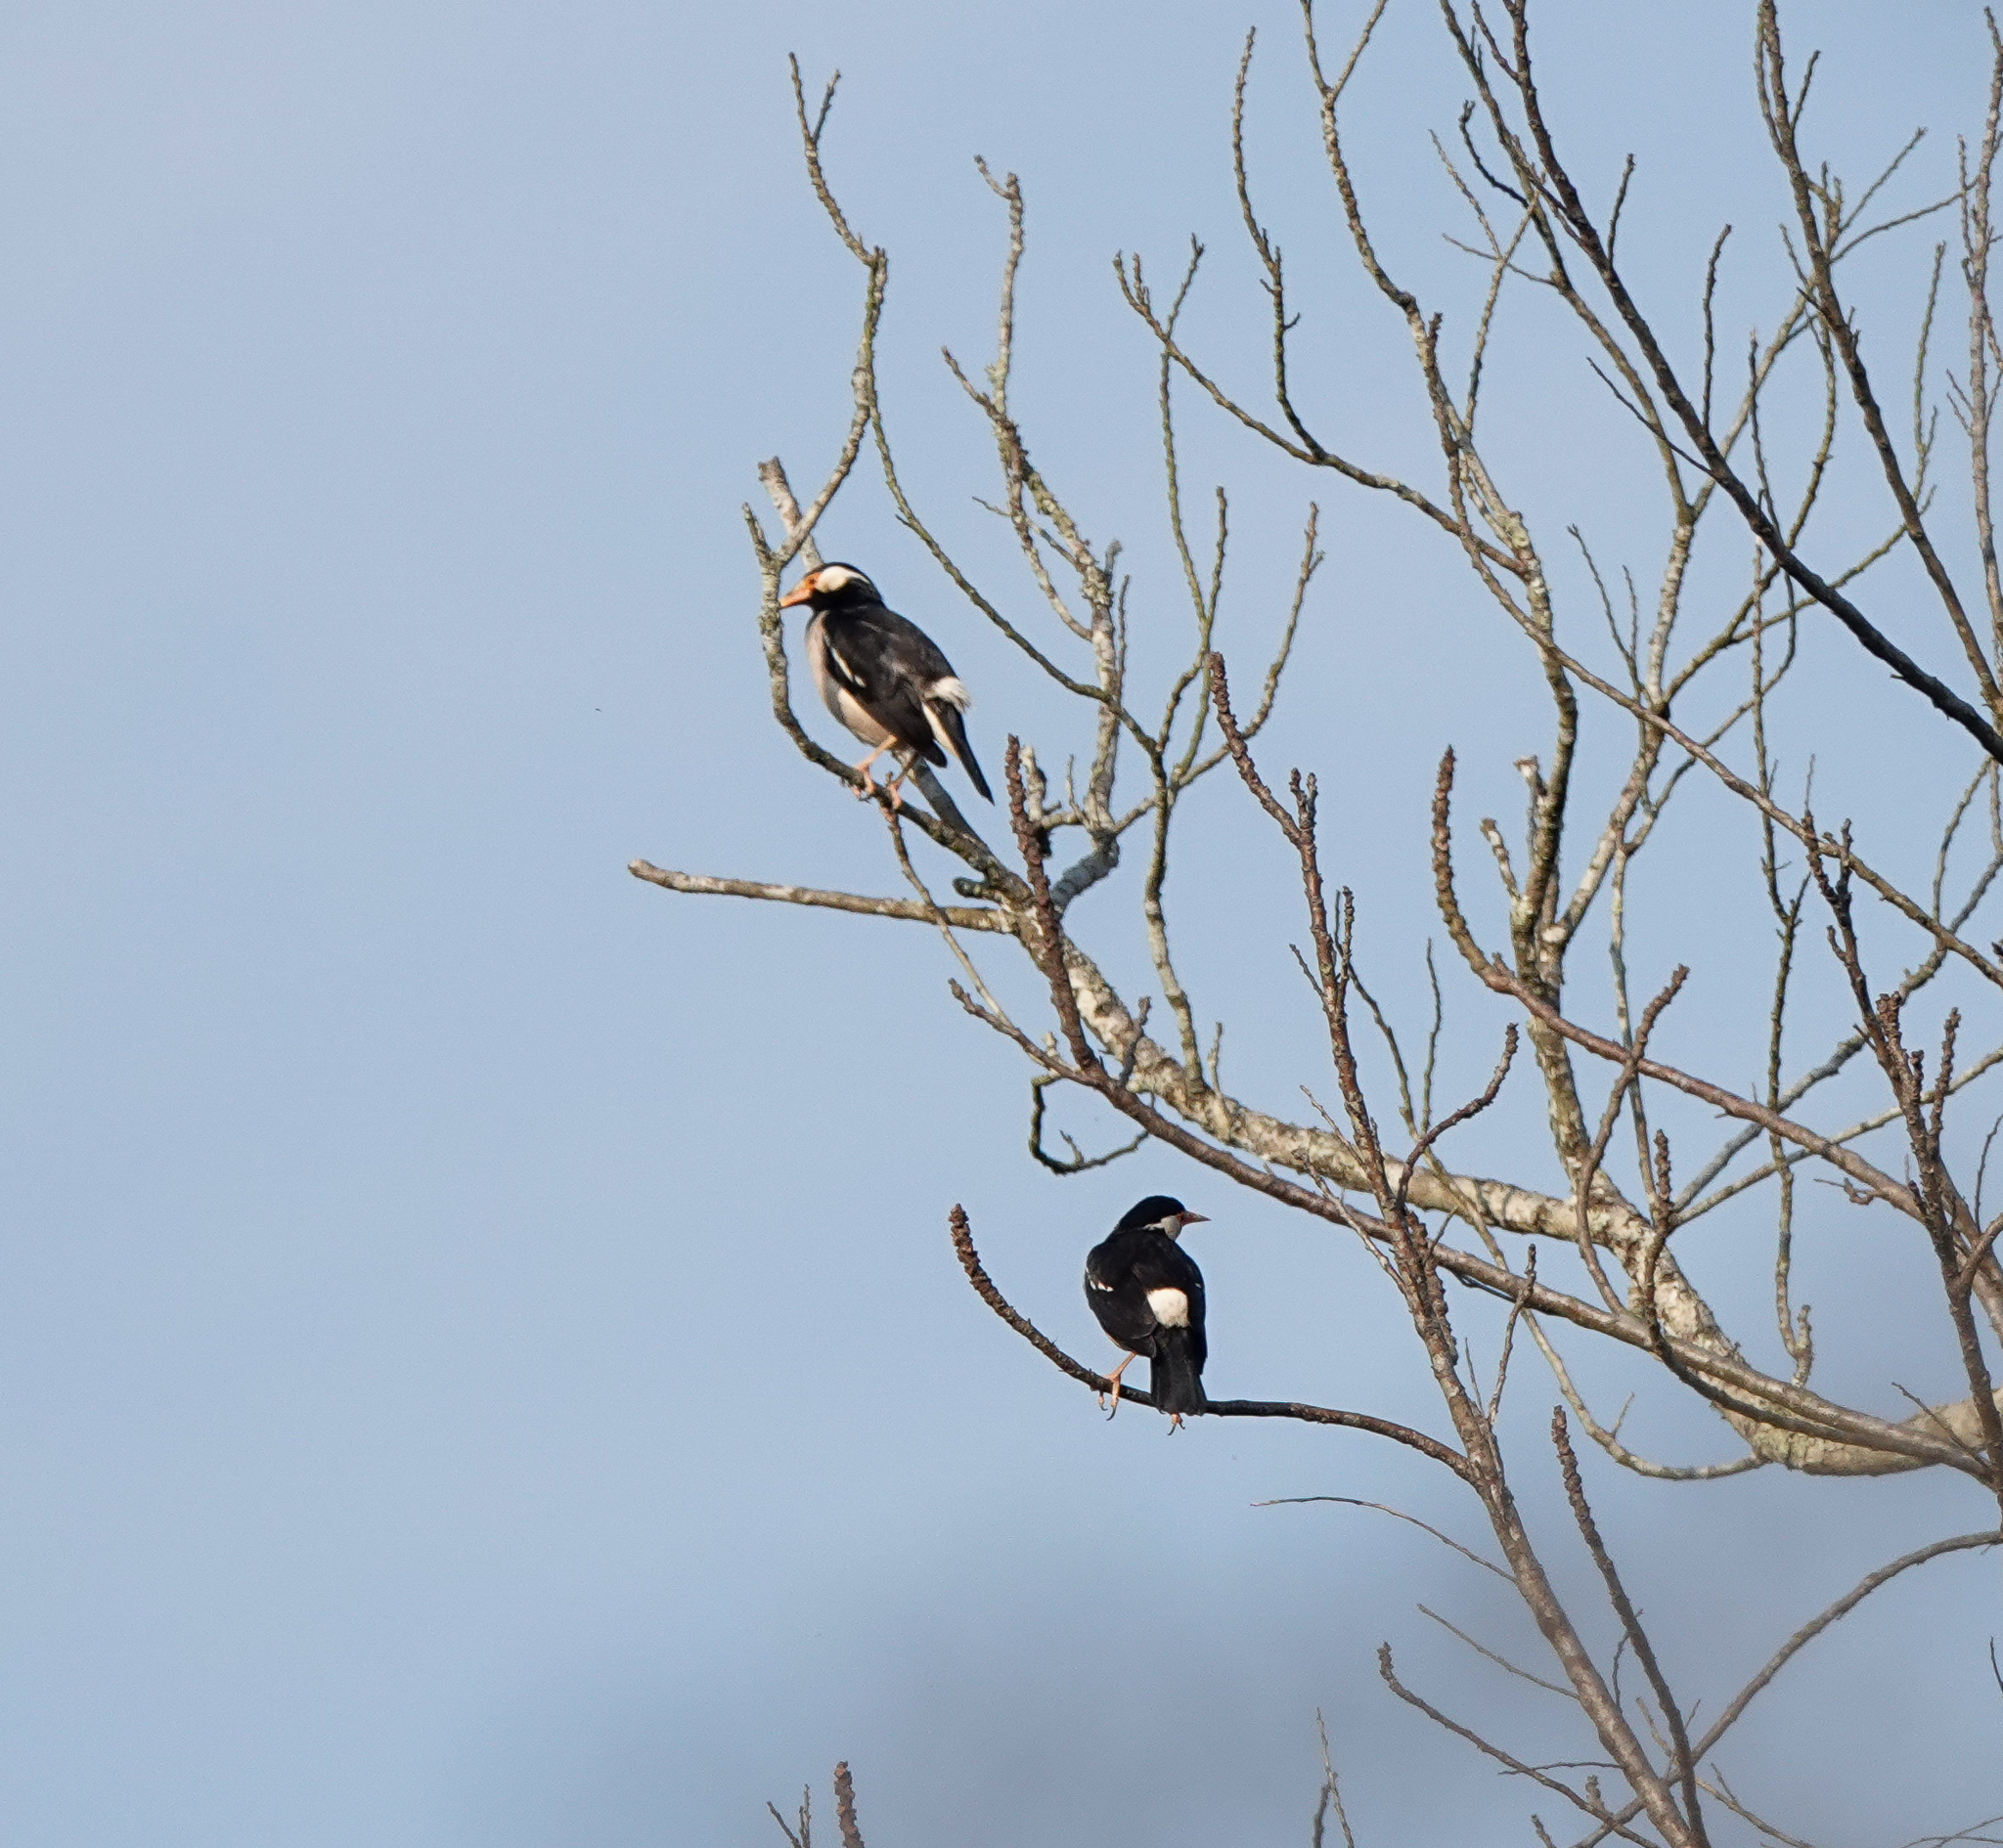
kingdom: Animalia
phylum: Chordata
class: Aves
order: Passeriformes
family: Sturnidae
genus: Gracupica
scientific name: Gracupica contra
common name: Pied myna
